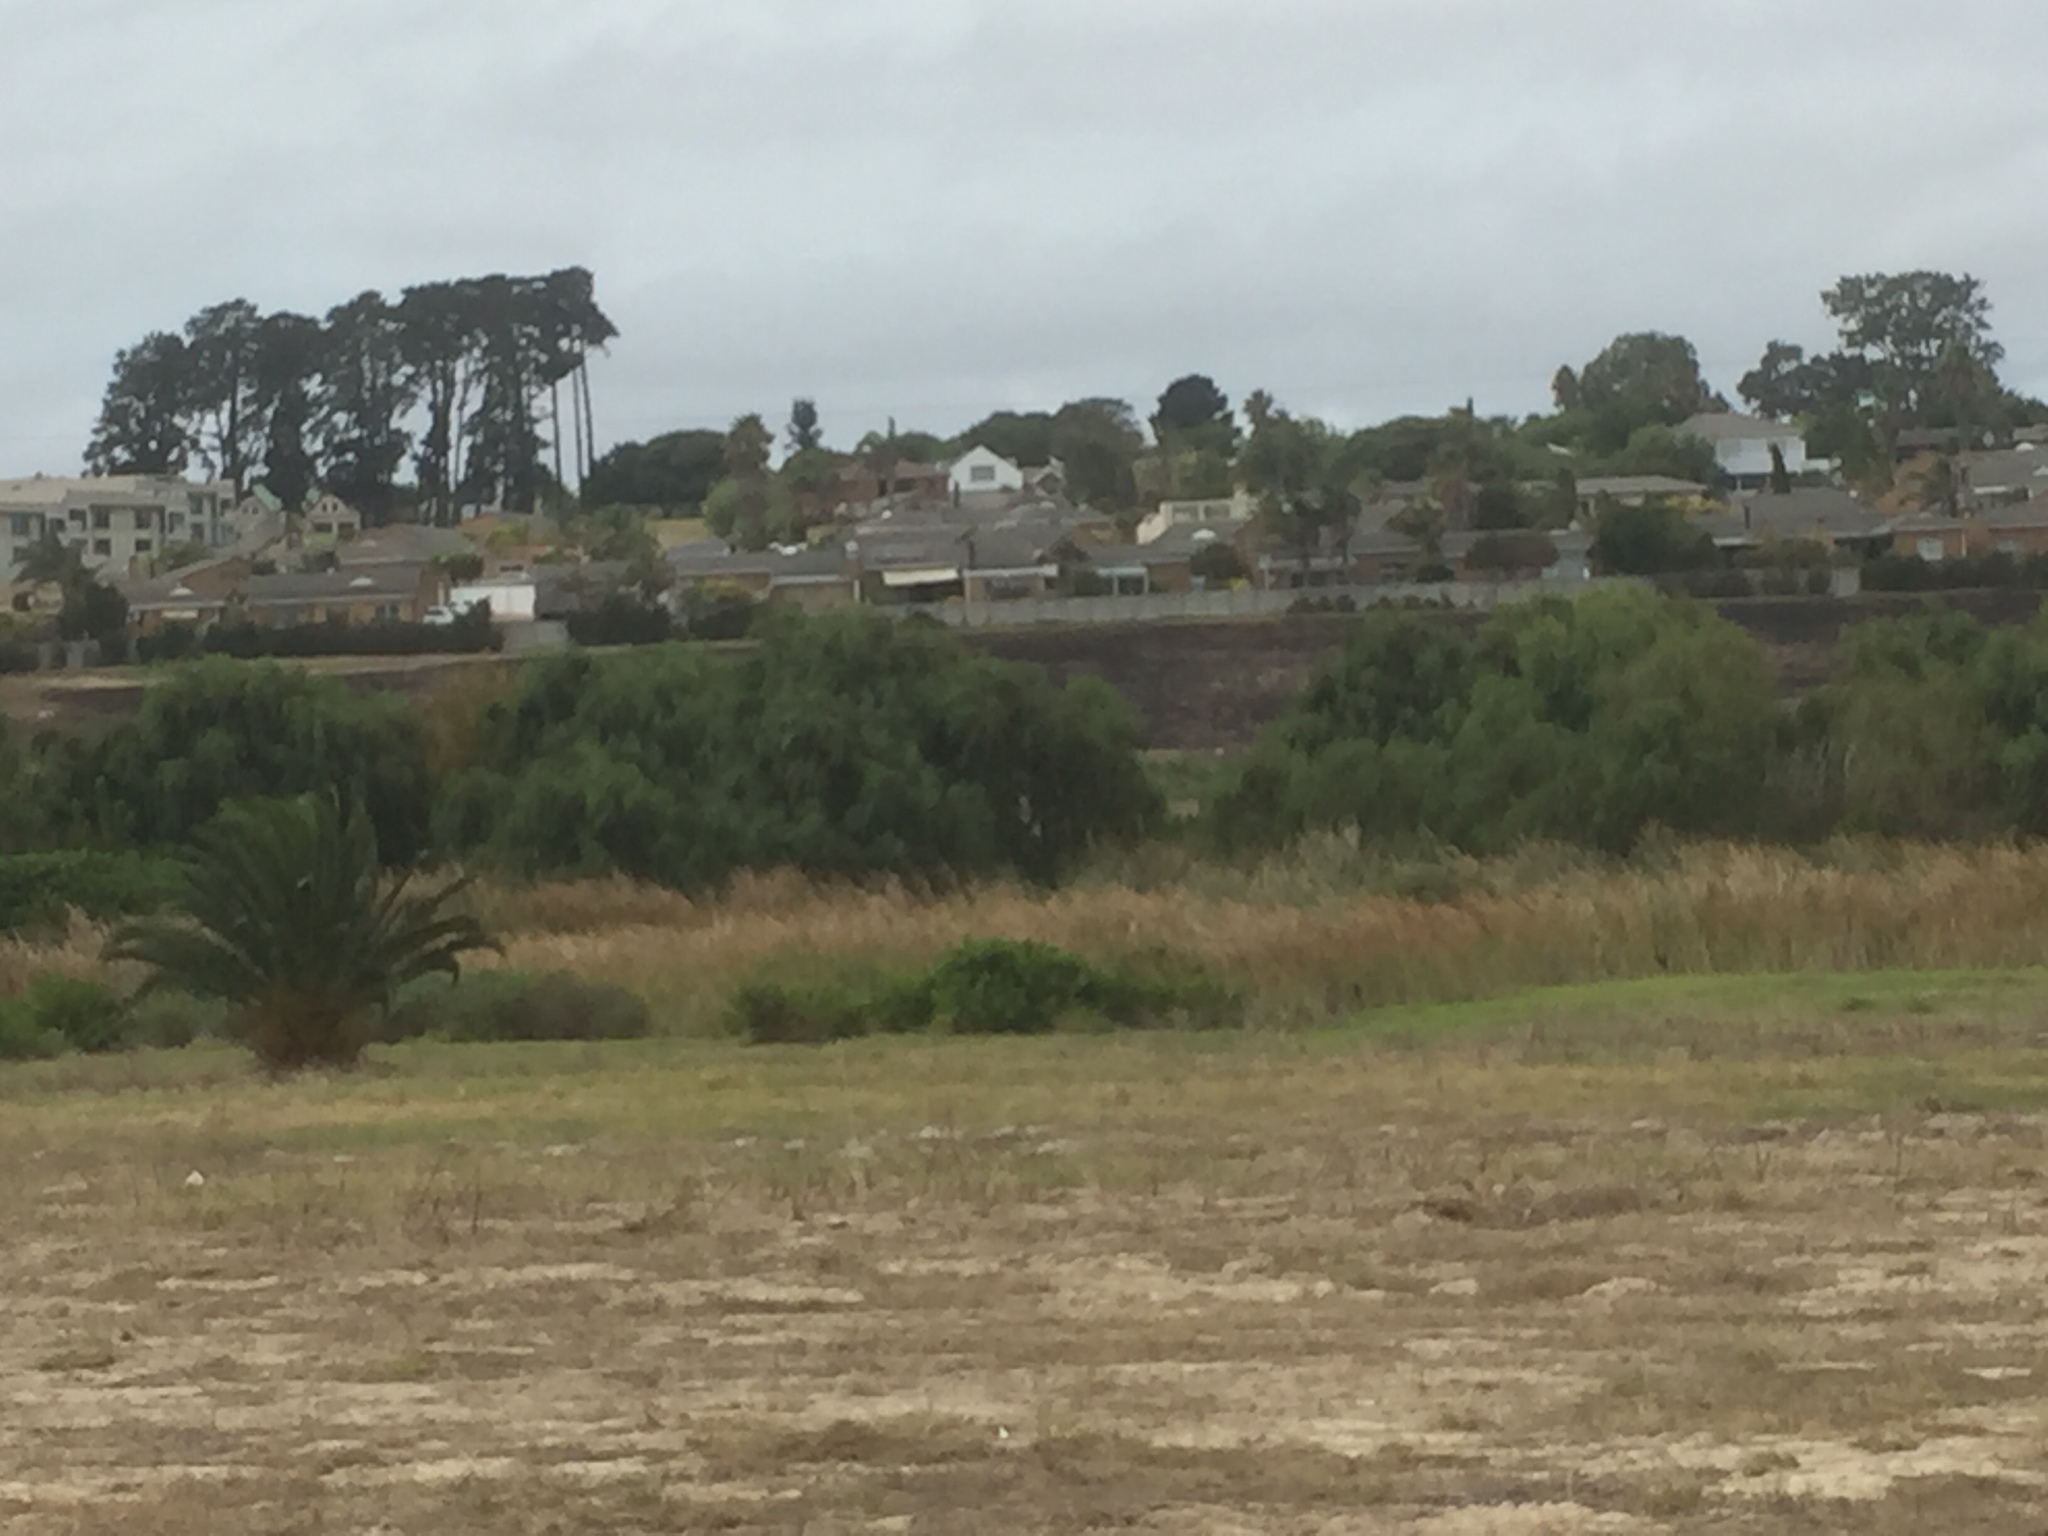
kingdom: Plantae
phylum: Tracheophyta
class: Magnoliopsida
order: Malpighiales
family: Salicaceae
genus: Salix
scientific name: Salix babylonica
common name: Weeping willow
